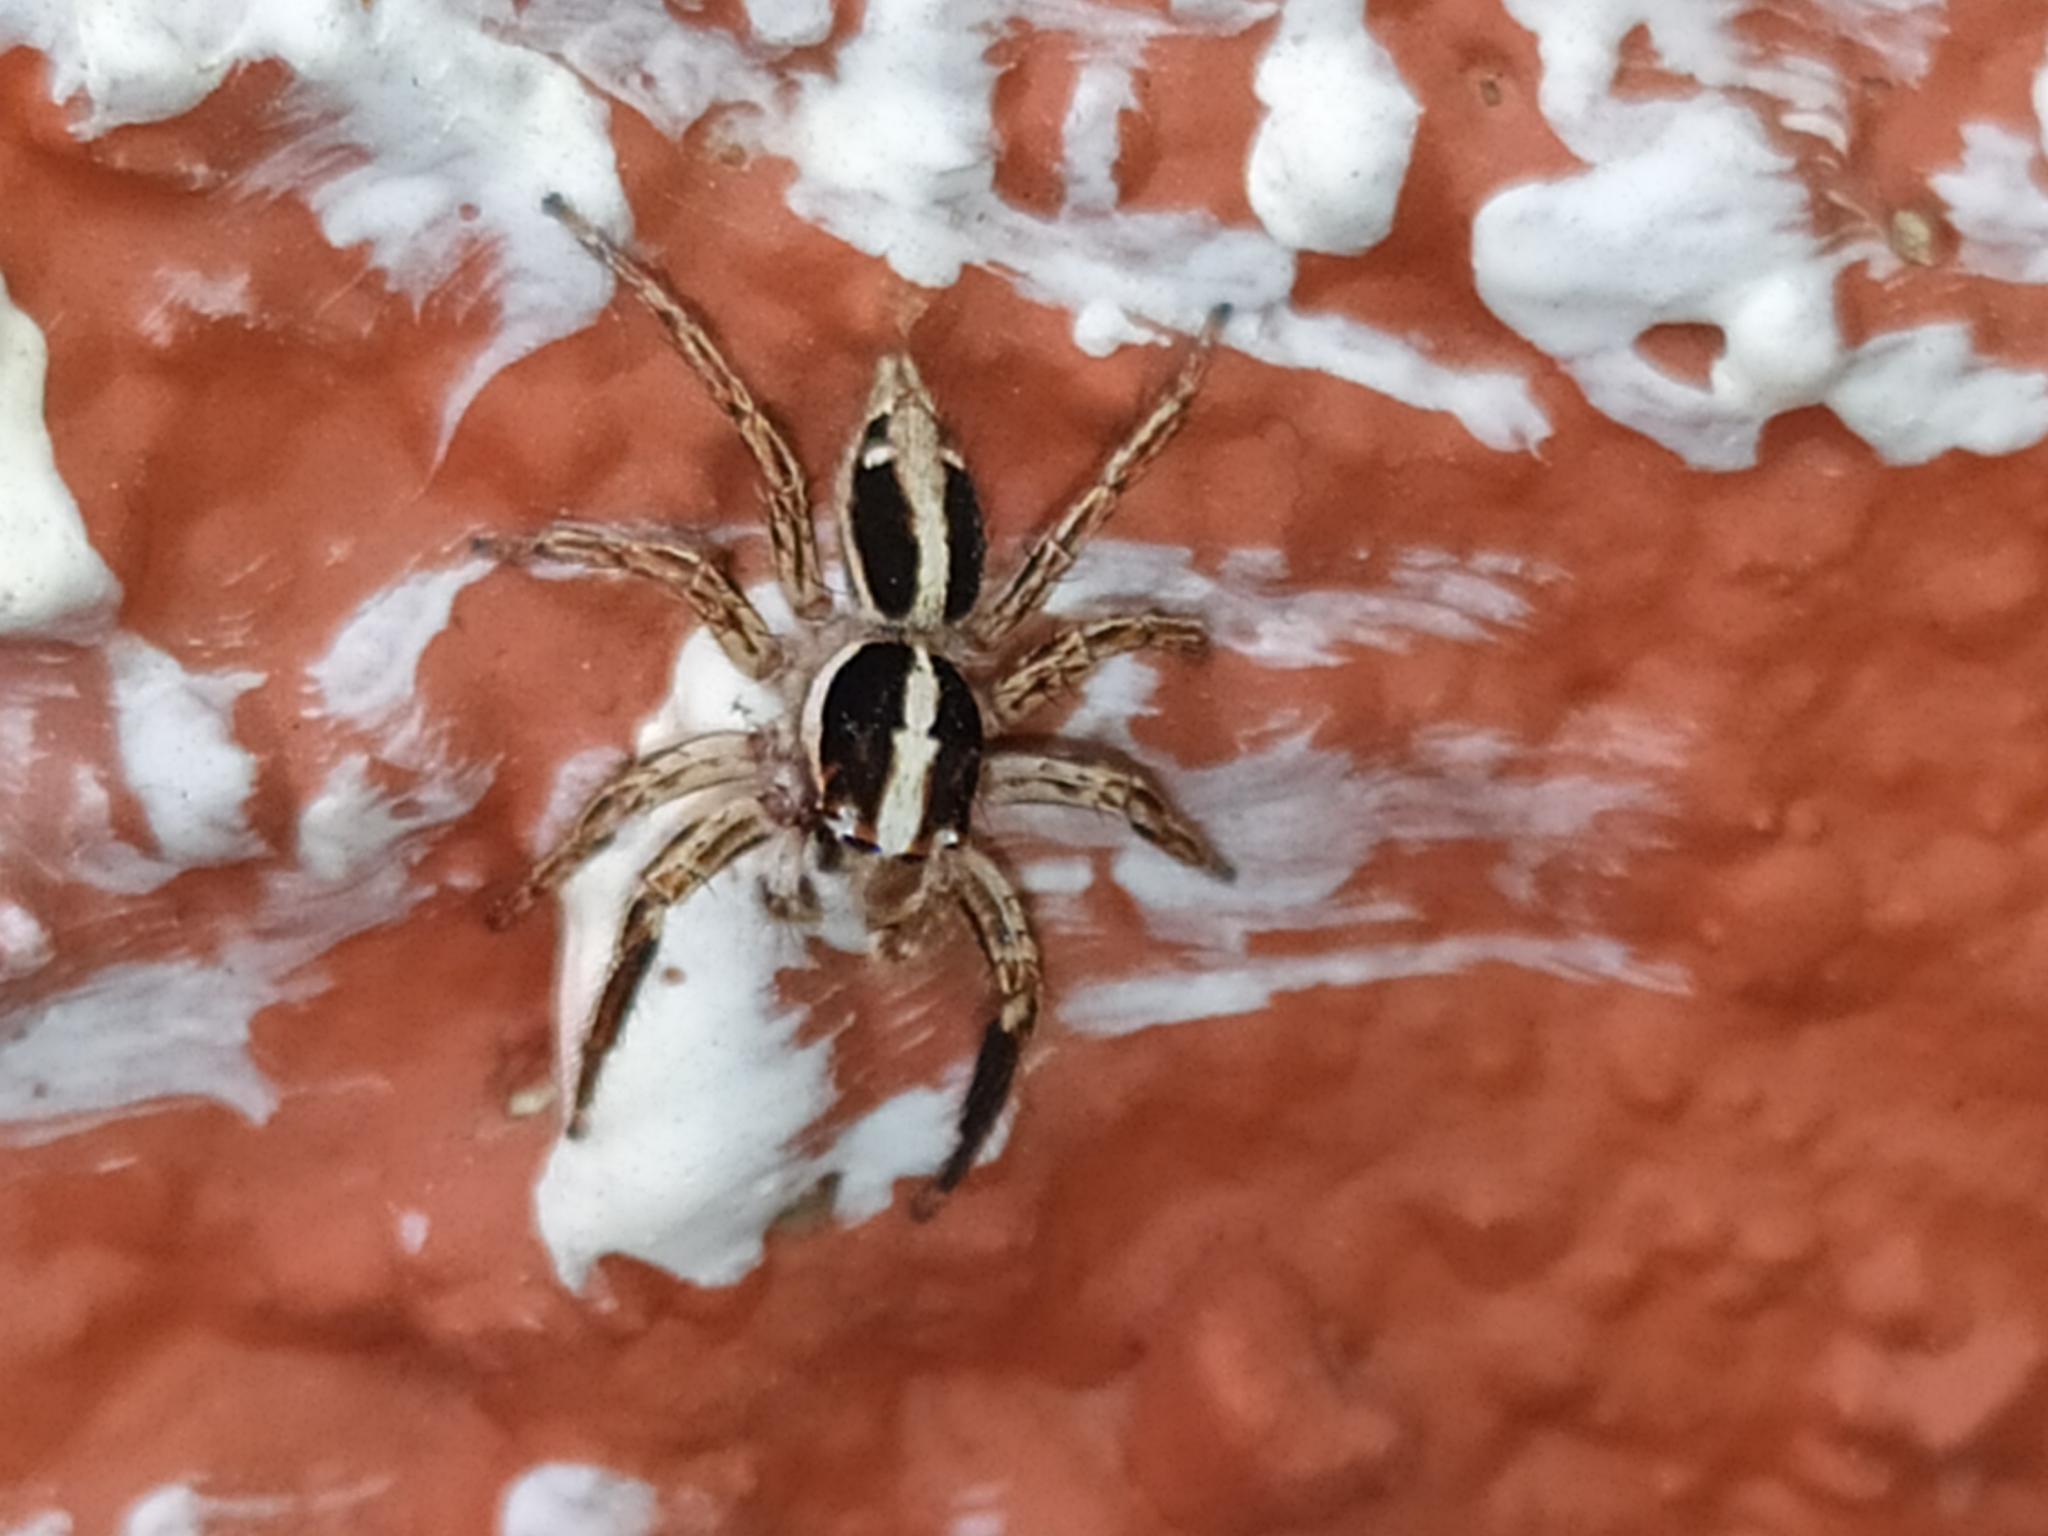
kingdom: Animalia
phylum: Arthropoda
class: Arachnida
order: Araneae
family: Salticidae
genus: Plexippus
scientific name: Plexippus paykulli
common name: Pantropical jumper
